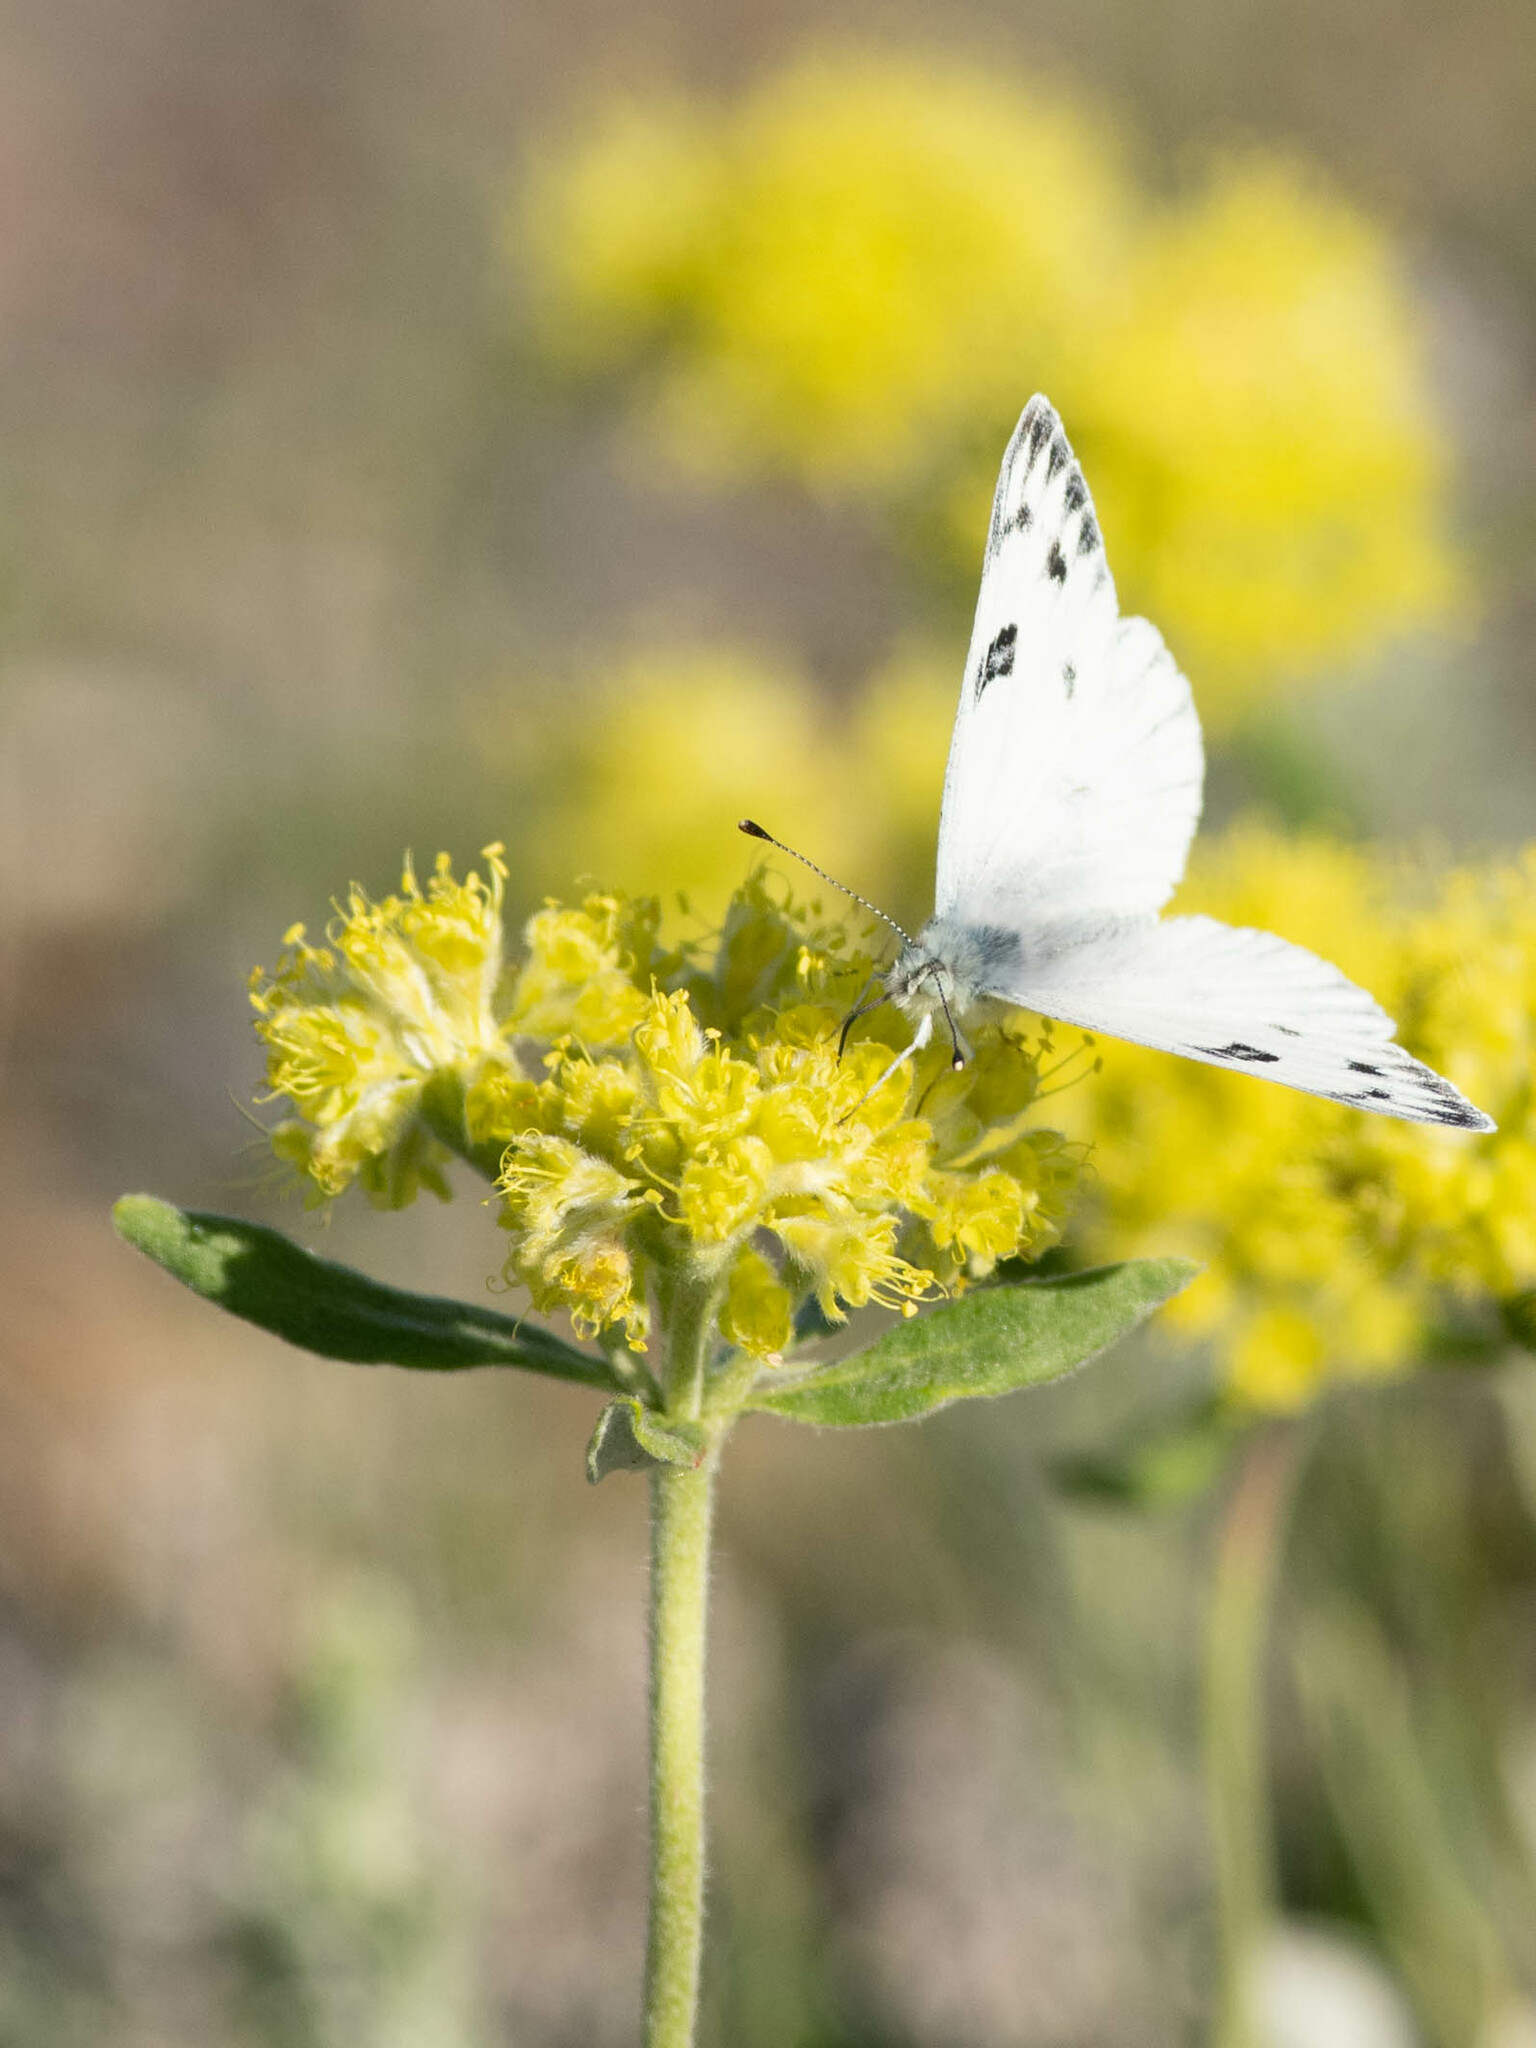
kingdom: Animalia
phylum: Arthropoda
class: Insecta
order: Lepidoptera
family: Pieridae
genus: Pontia
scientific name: Pontia occidentalis
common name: Western white
